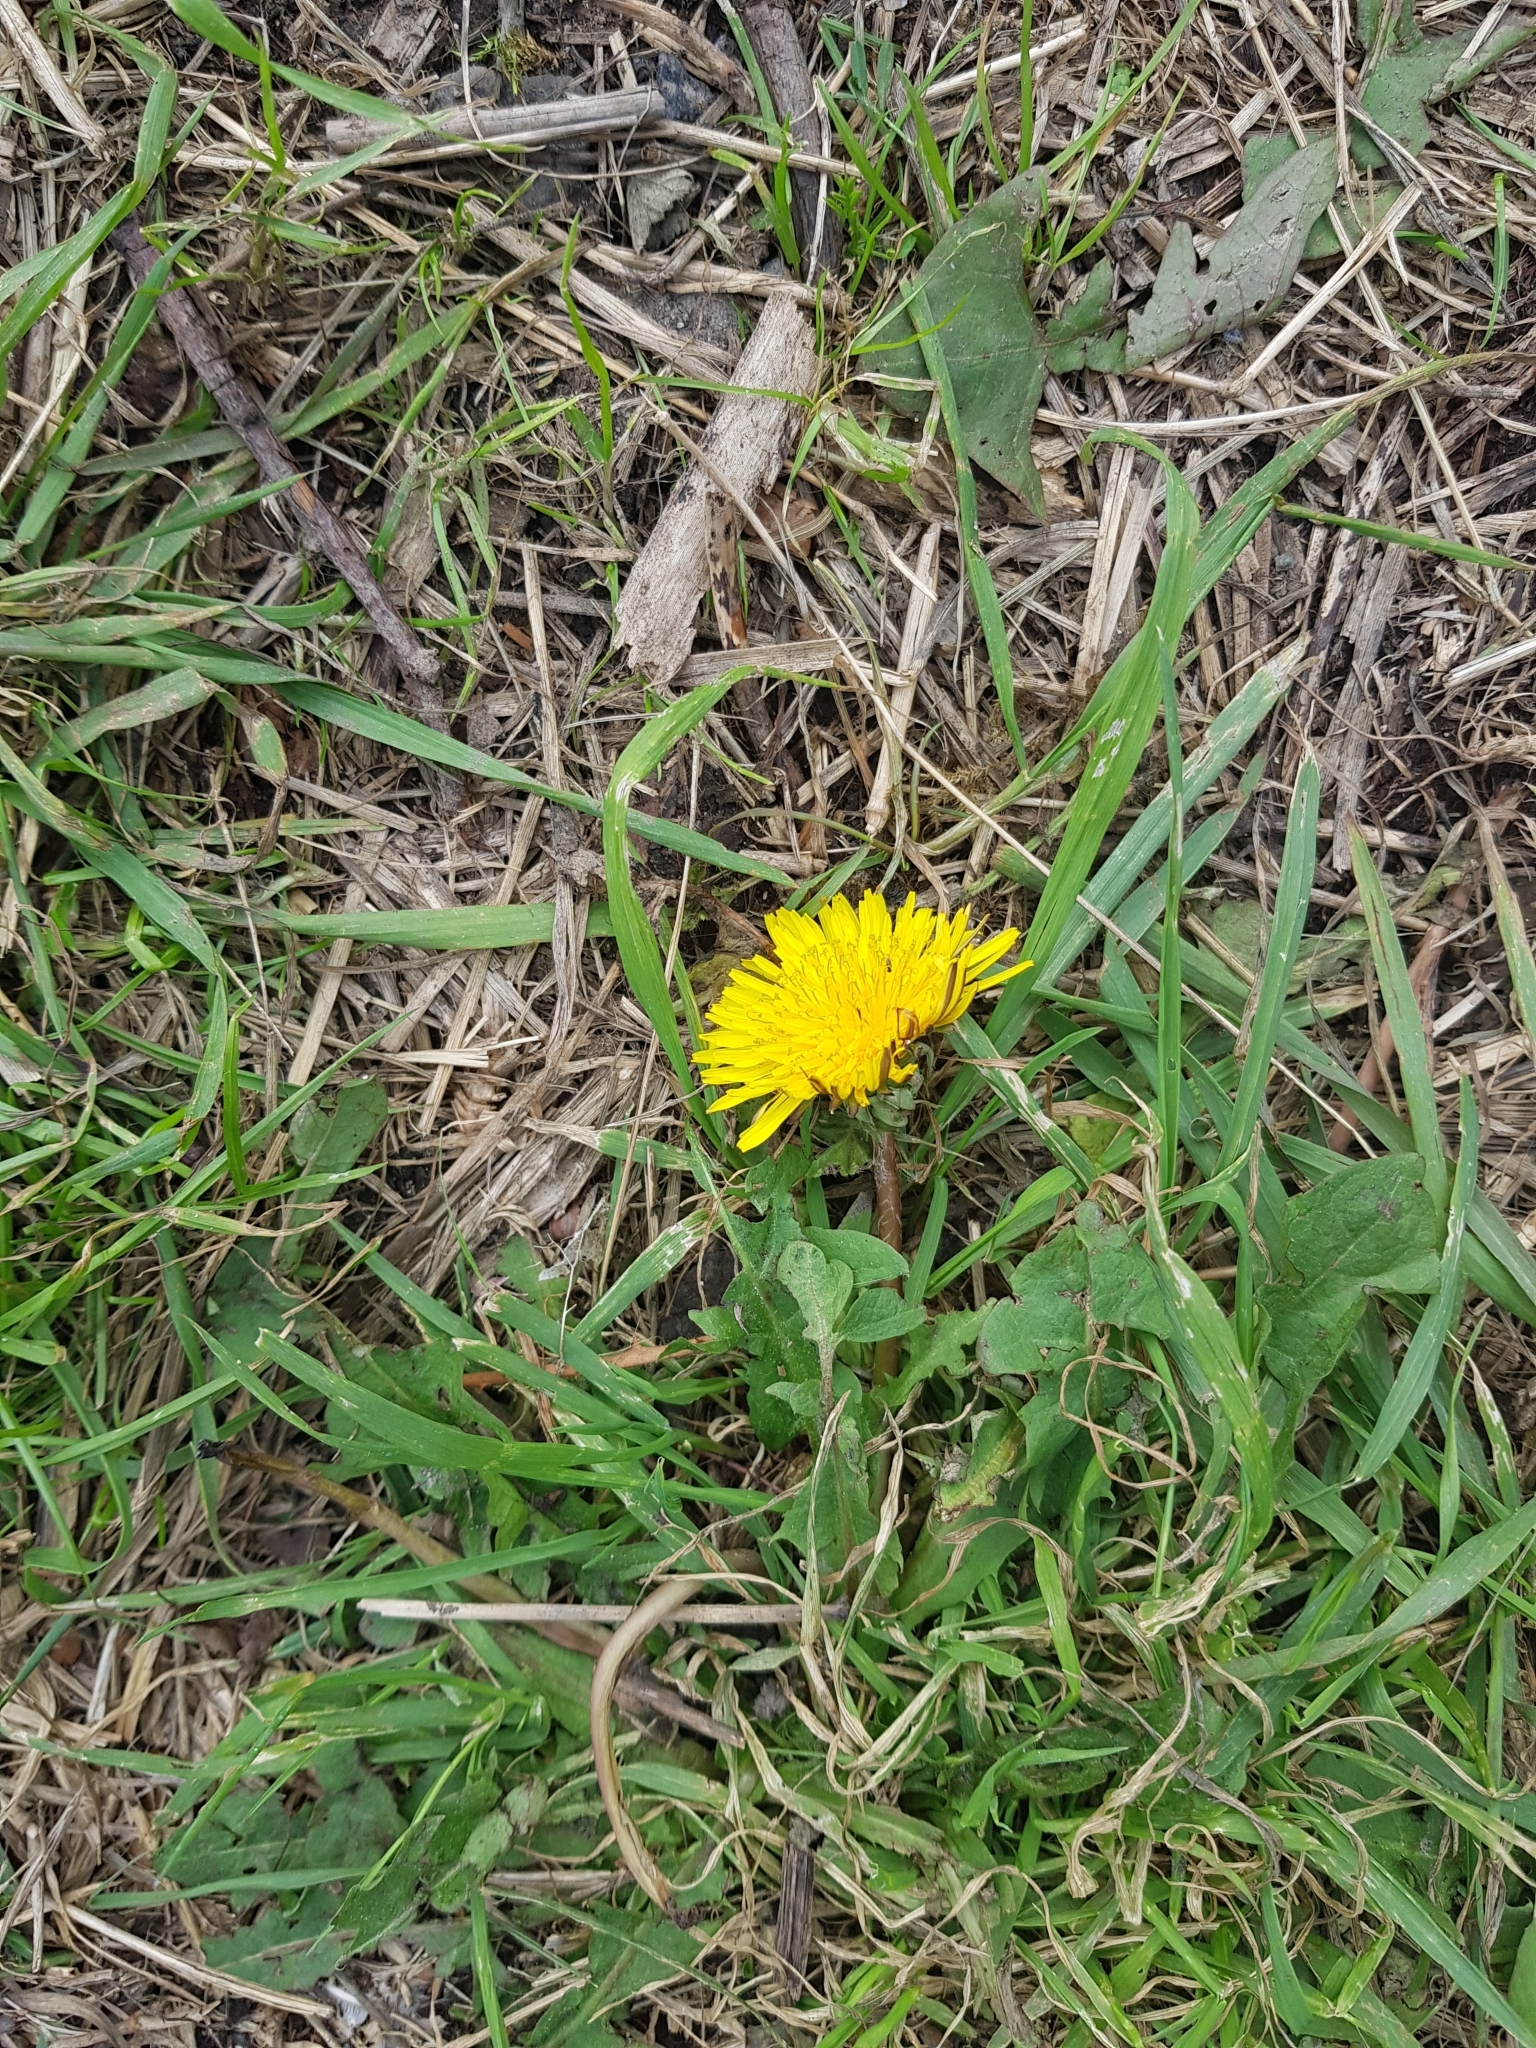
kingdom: Plantae
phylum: Tracheophyta
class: Magnoliopsida
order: Asterales
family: Asteraceae
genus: Taraxacum
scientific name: Taraxacum officinale
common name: Common dandelion
